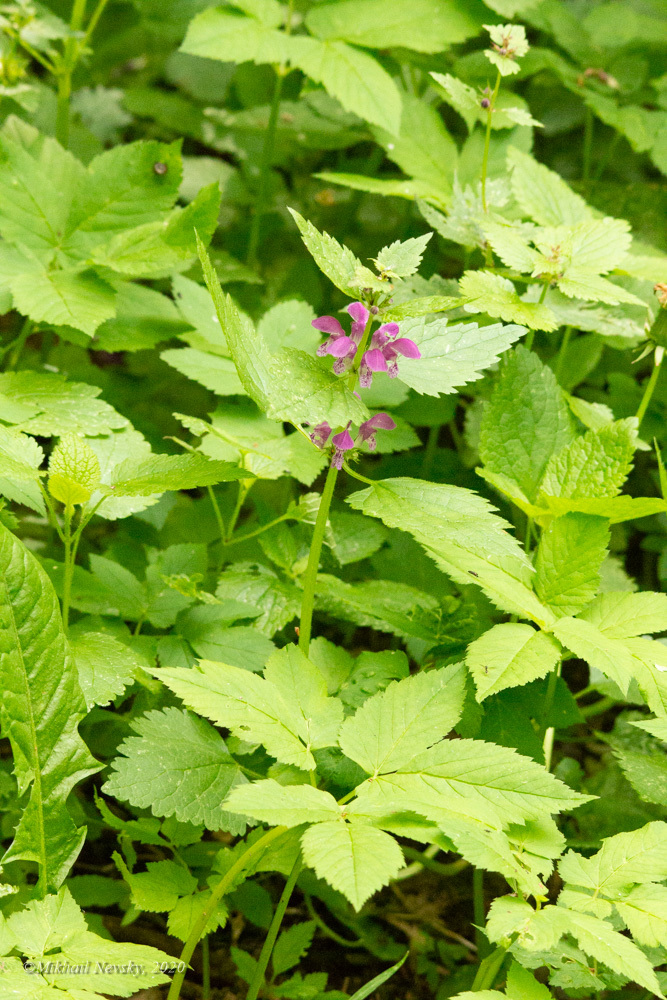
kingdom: Plantae
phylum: Tracheophyta
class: Magnoliopsida
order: Lamiales
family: Lamiaceae
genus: Lamium
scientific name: Lamium maculatum
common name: Spotted dead-nettle
